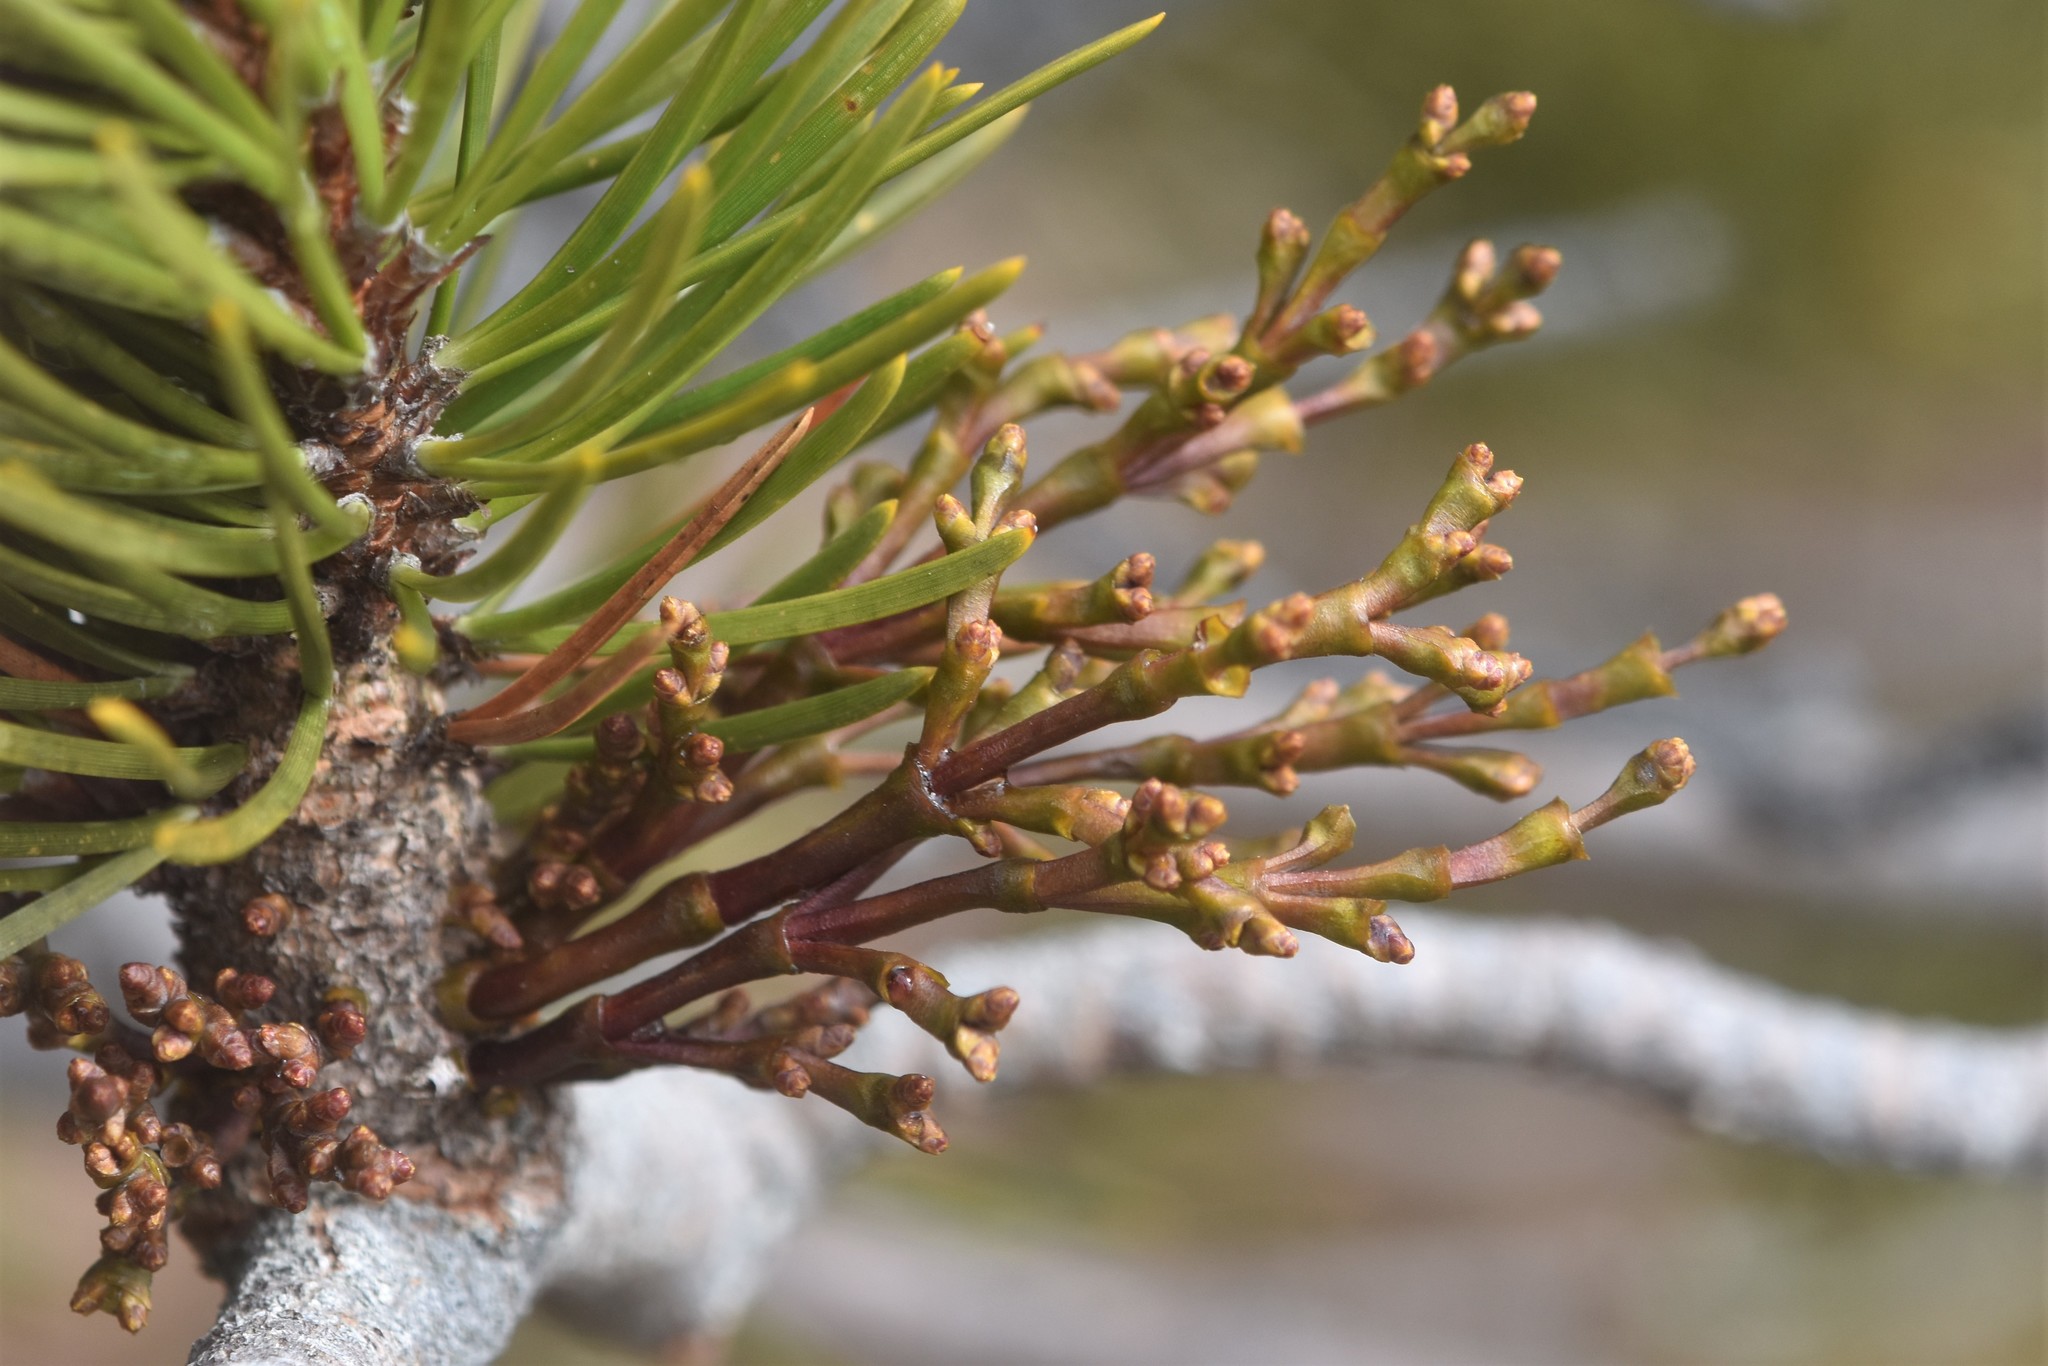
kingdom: Plantae
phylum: Tracheophyta
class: Magnoliopsida
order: Santalales
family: Viscaceae
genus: Arceuthobium
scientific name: Arceuthobium campylopodum
